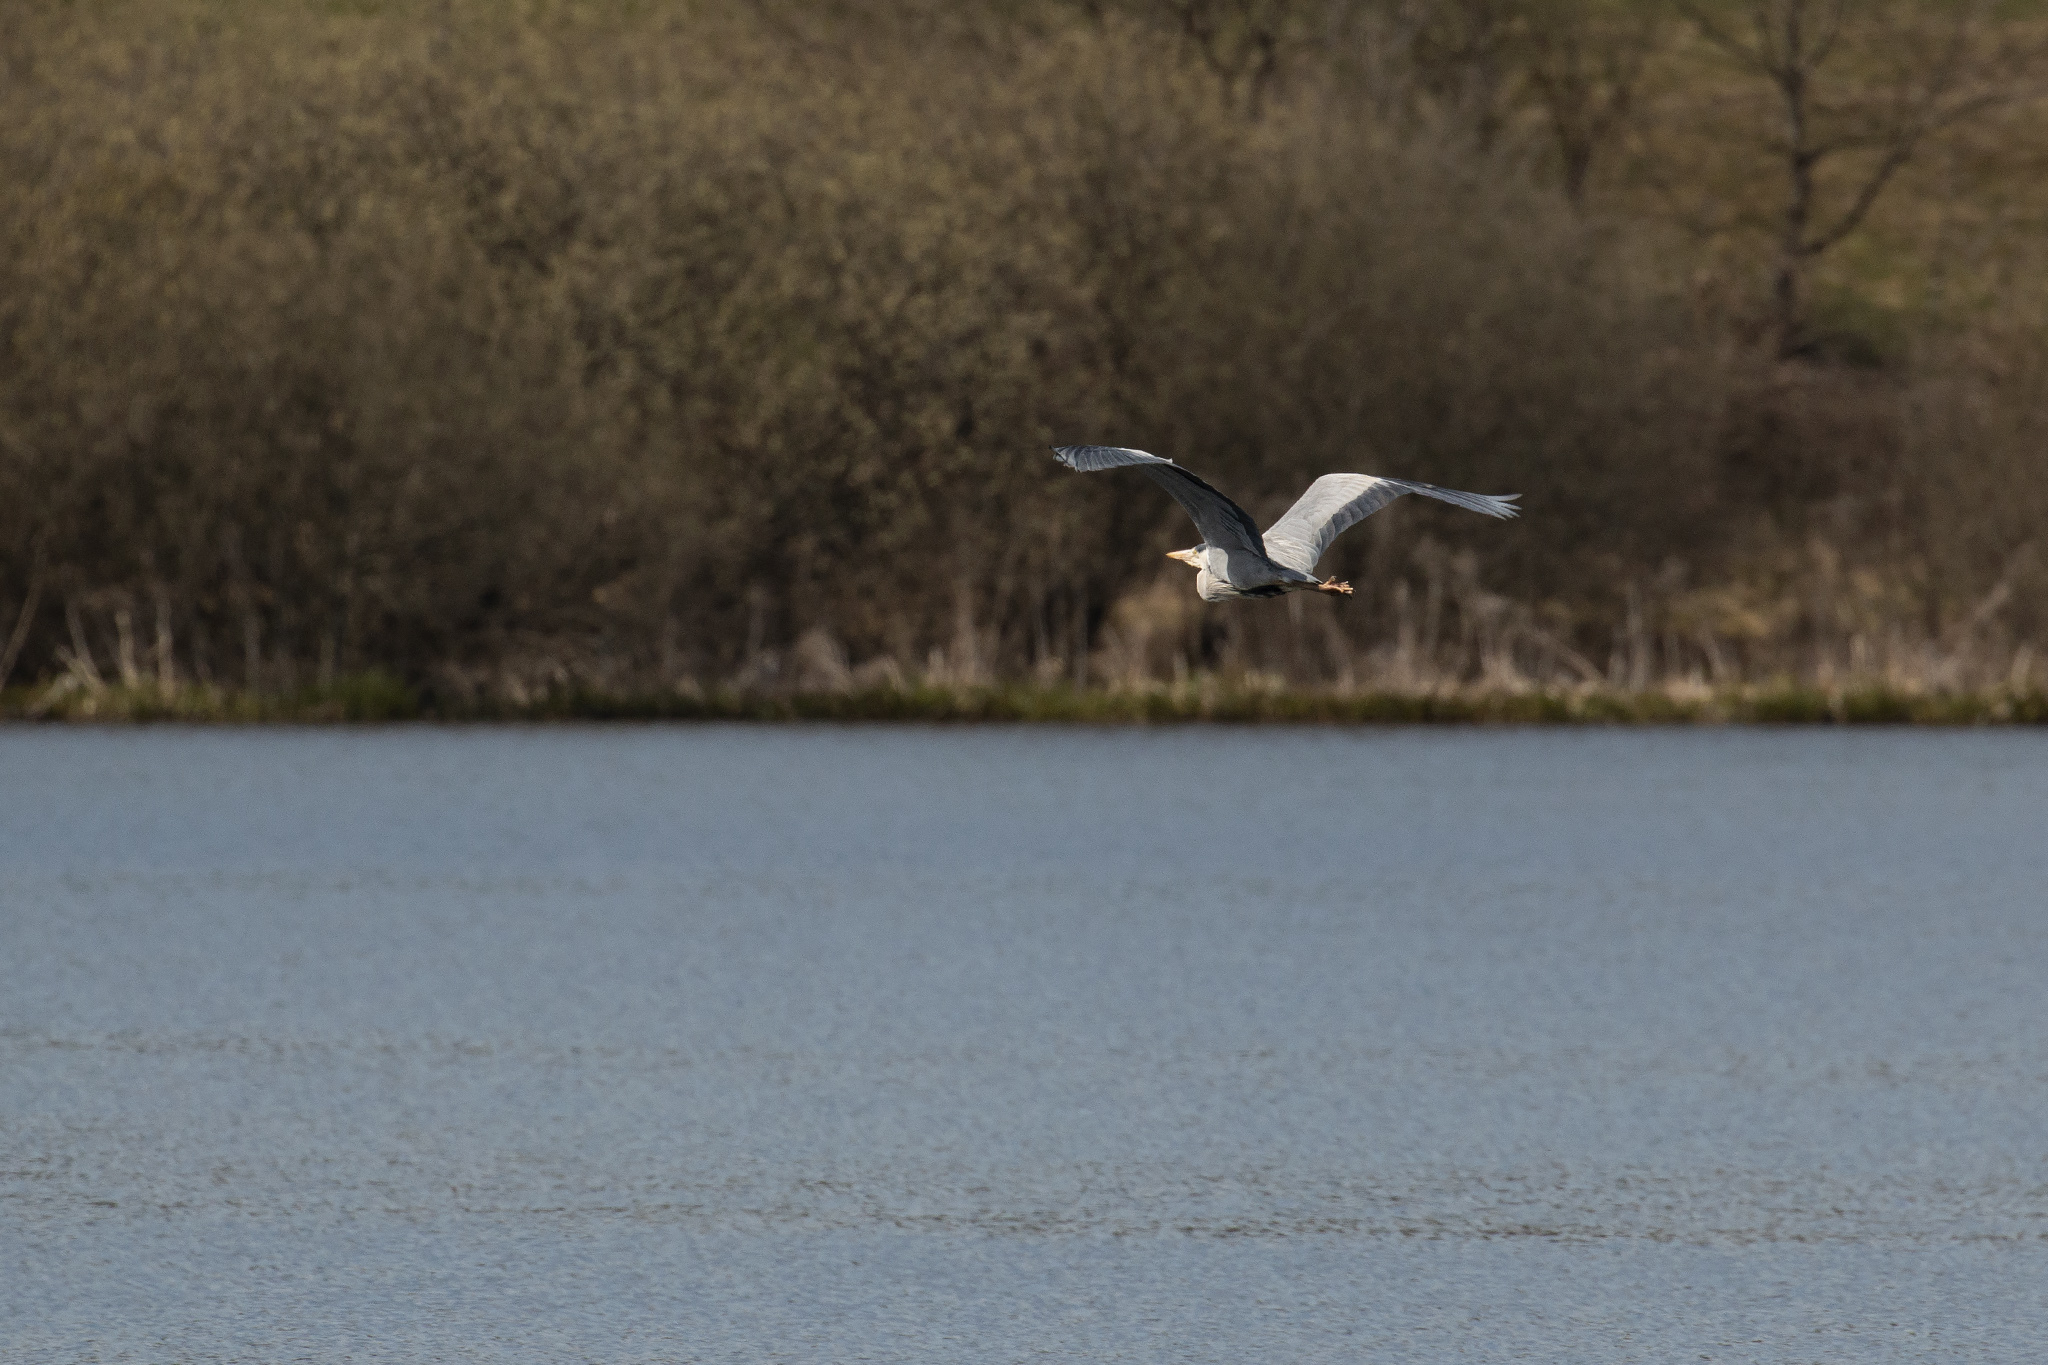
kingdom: Animalia
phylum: Chordata
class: Aves
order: Pelecaniformes
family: Ardeidae
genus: Ardea
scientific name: Ardea cinerea
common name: Grey heron
